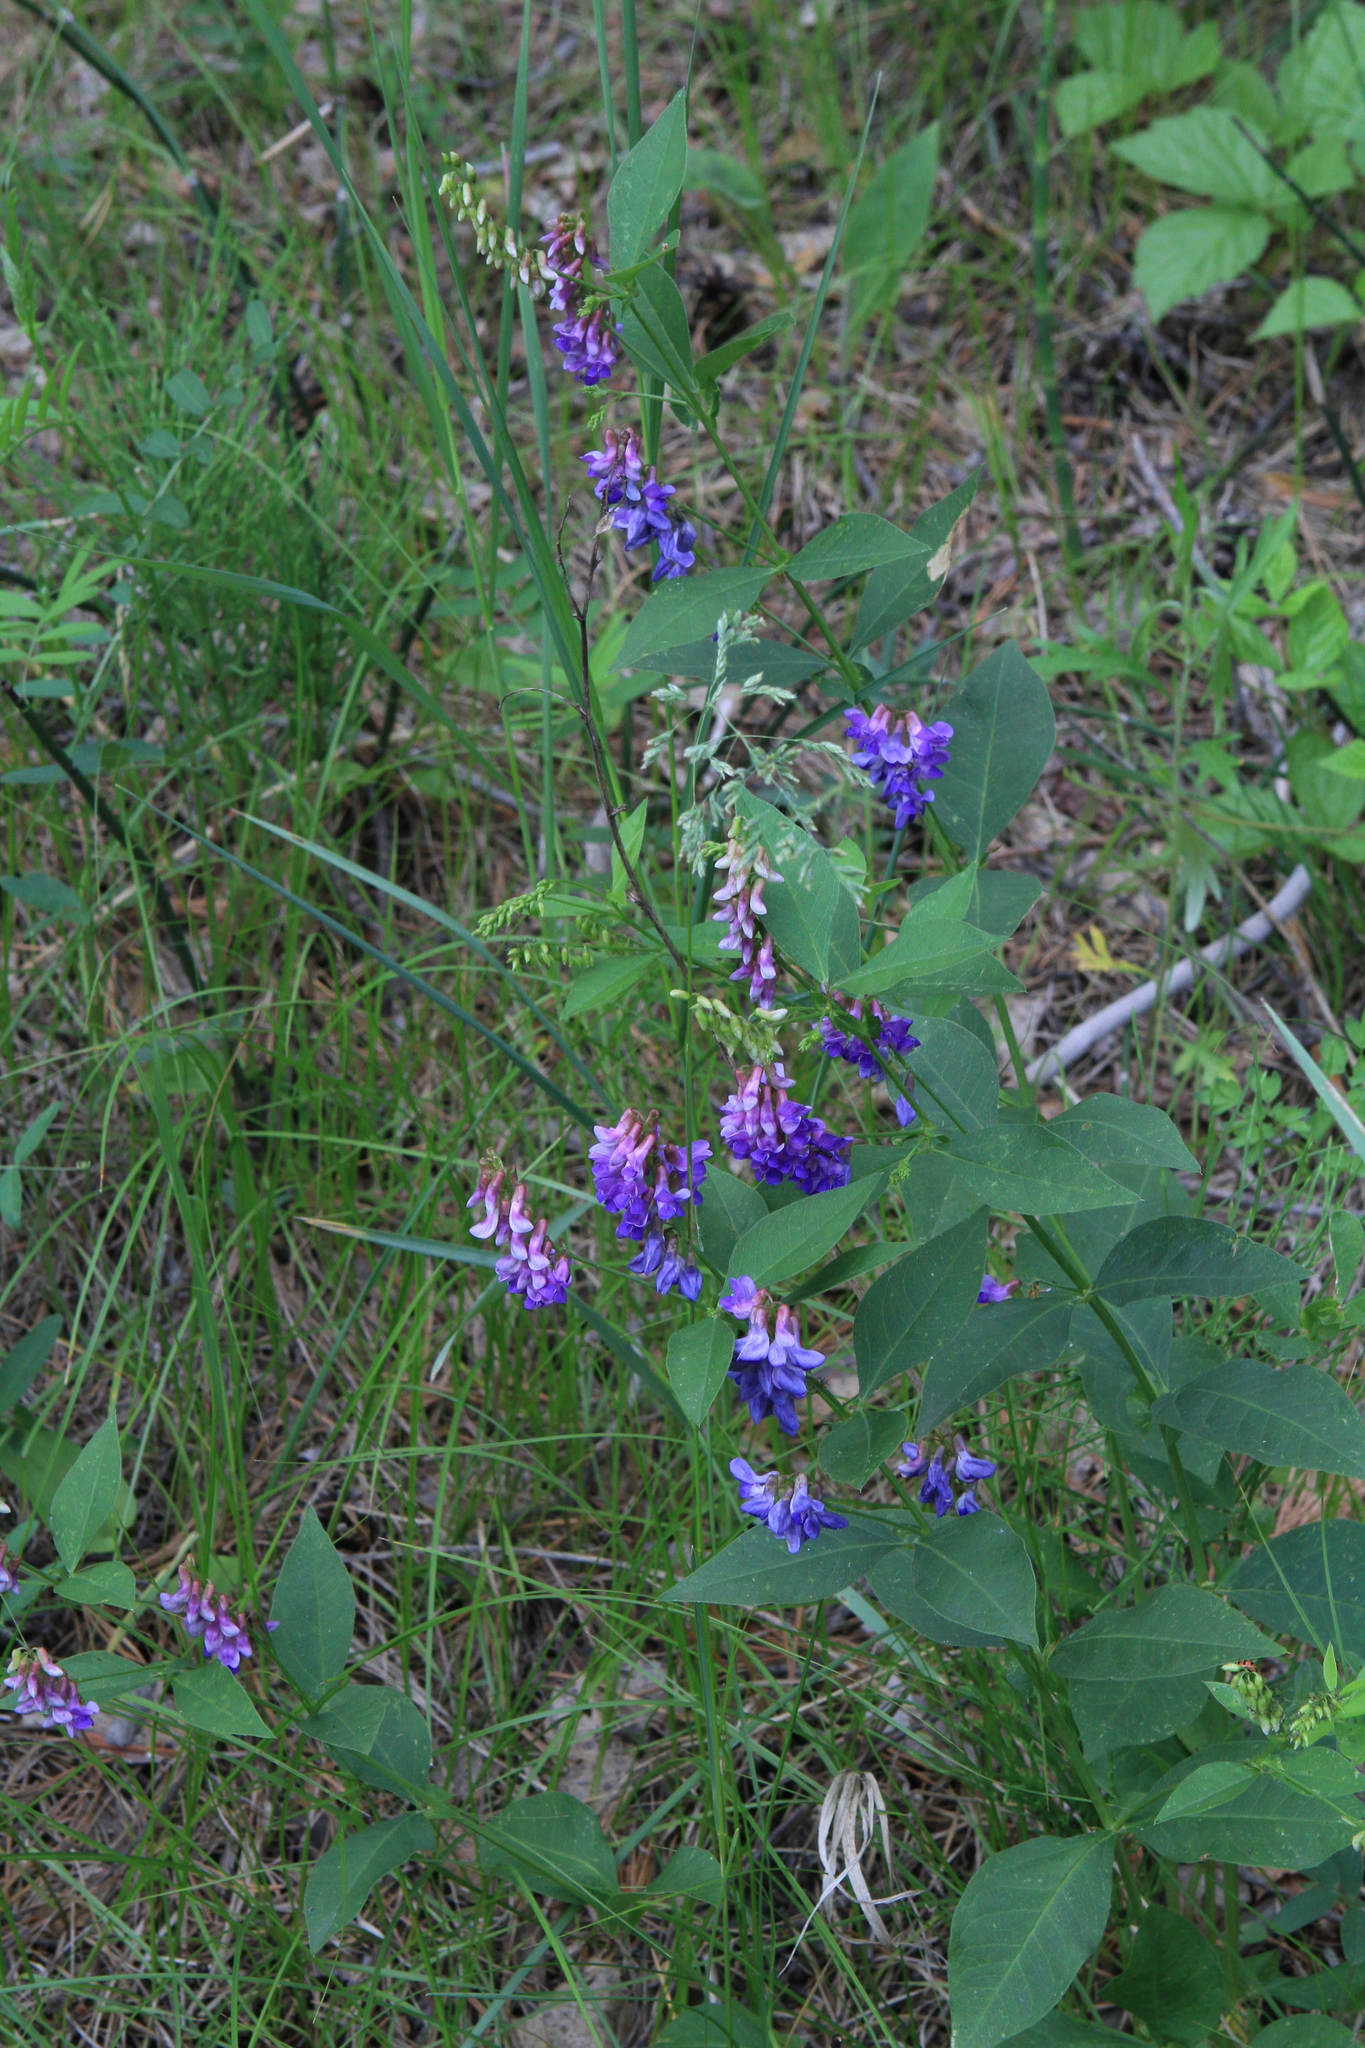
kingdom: Plantae
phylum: Tracheophyta
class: Magnoliopsida
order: Fabales
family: Fabaceae
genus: Vicia
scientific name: Vicia unijuga
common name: Two-leaf vetch
